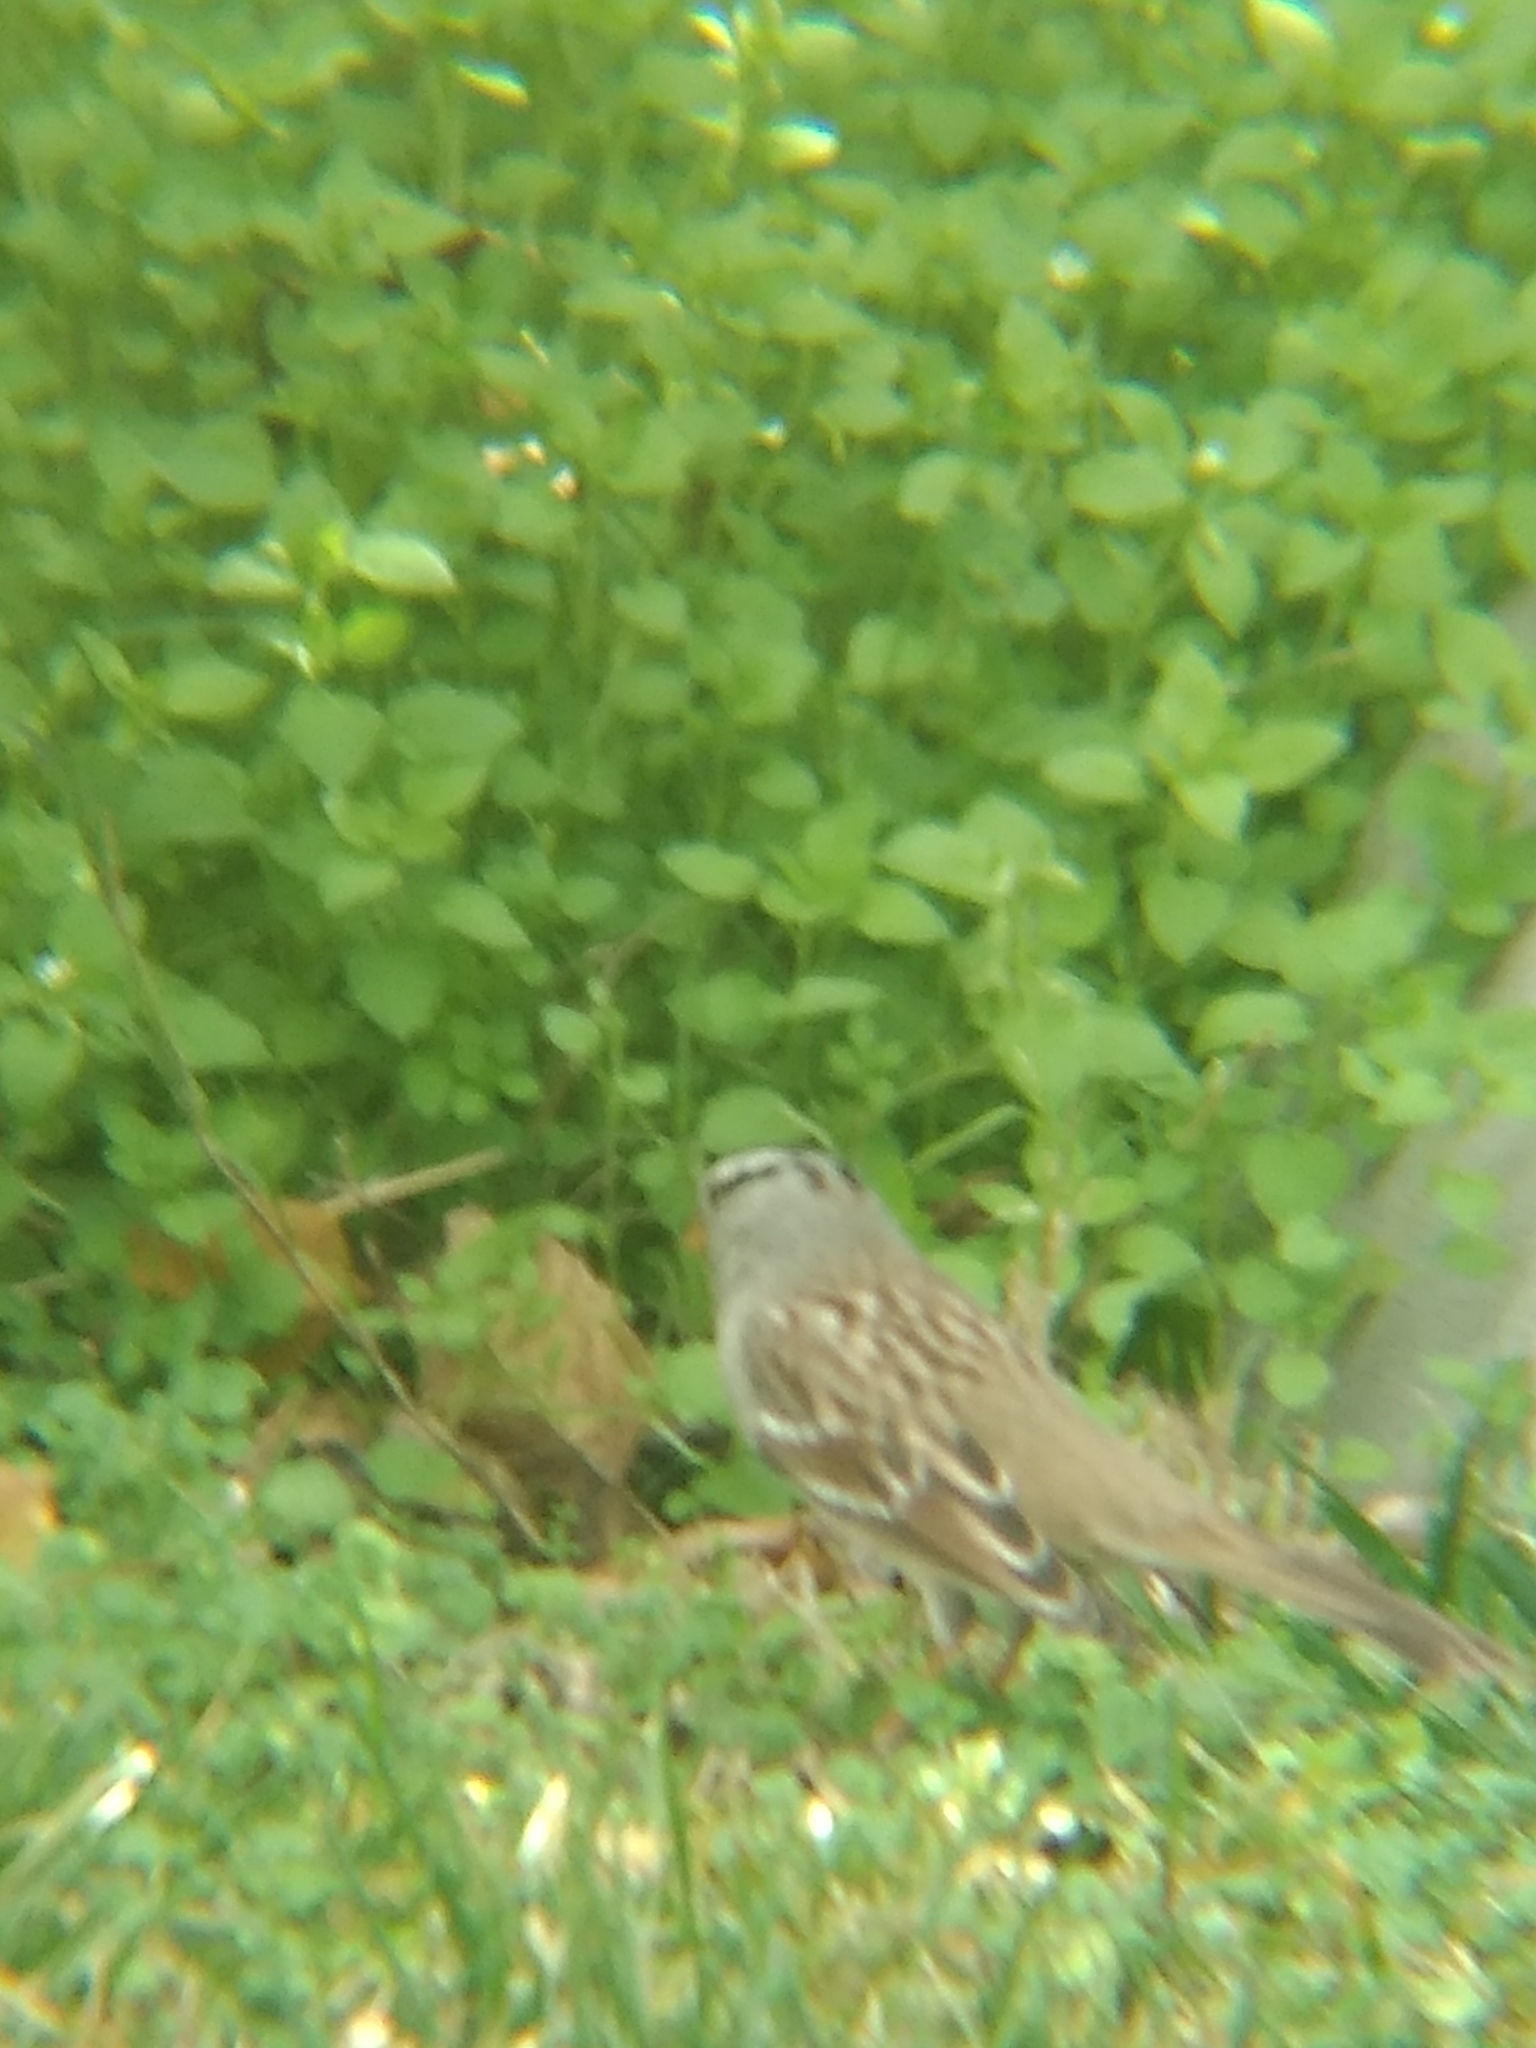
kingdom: Animalia
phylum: Chordata
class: Aves
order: Passeriformes
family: Passerellidae
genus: Zonotrichia
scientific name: Zonotrichia leucophrys
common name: White-crowned sparrow
